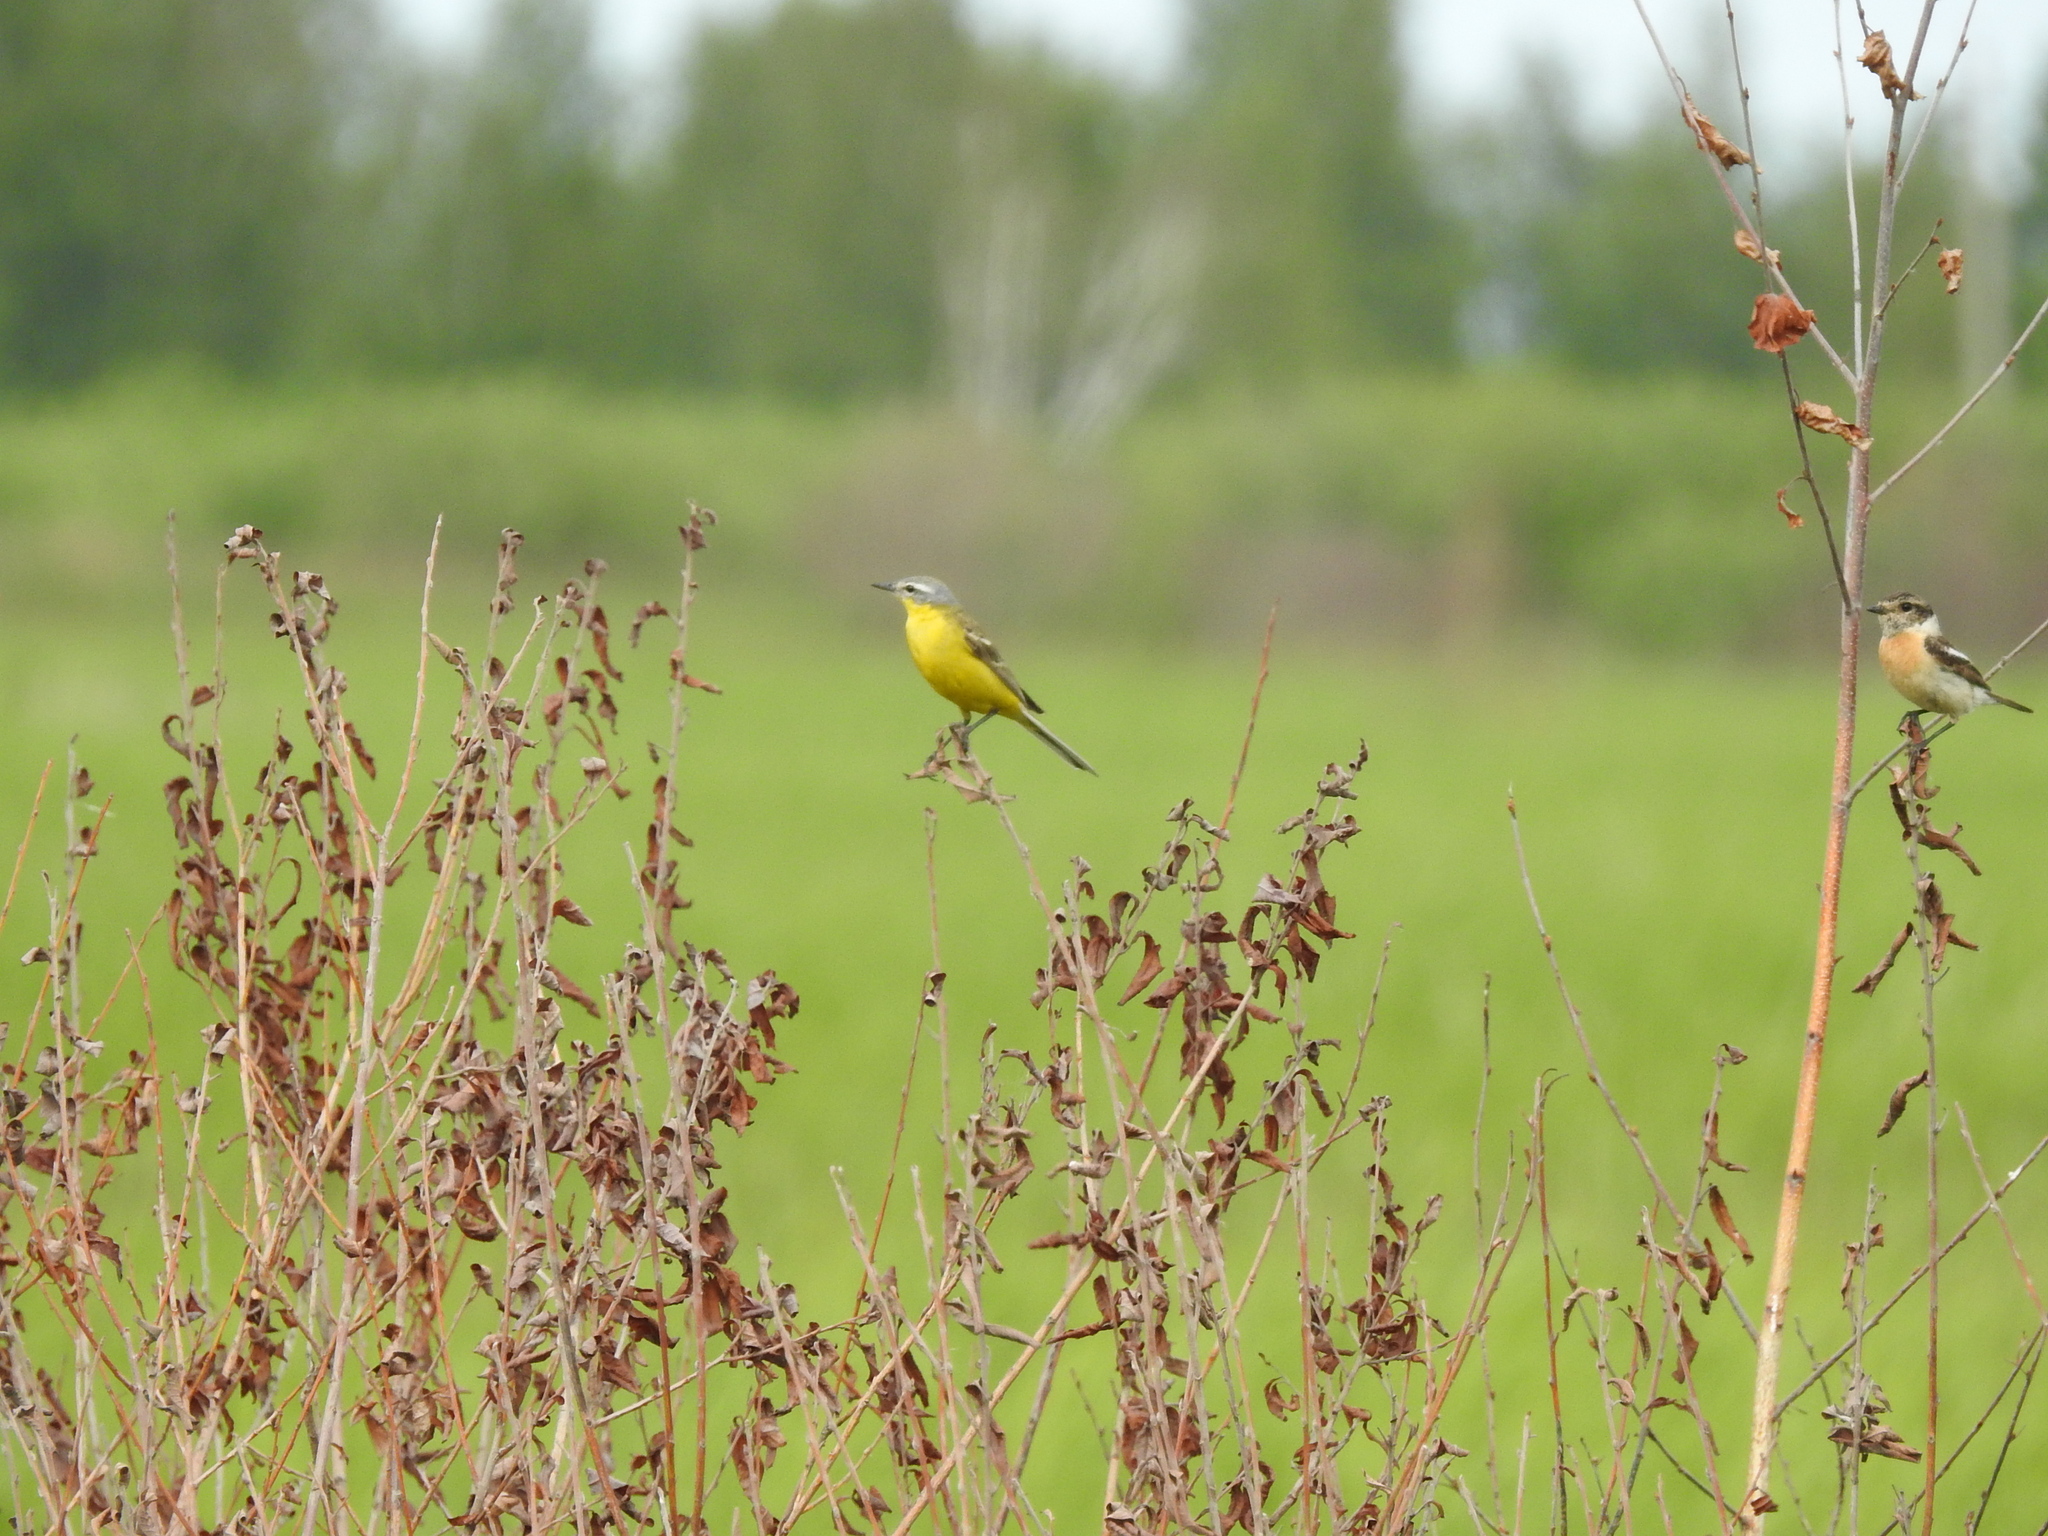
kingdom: Animalia
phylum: Chordata
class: Aves
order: Passeriformes
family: Motacillidae
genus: Motacilla
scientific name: Motacilla flava
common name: Western yellow wagtail
